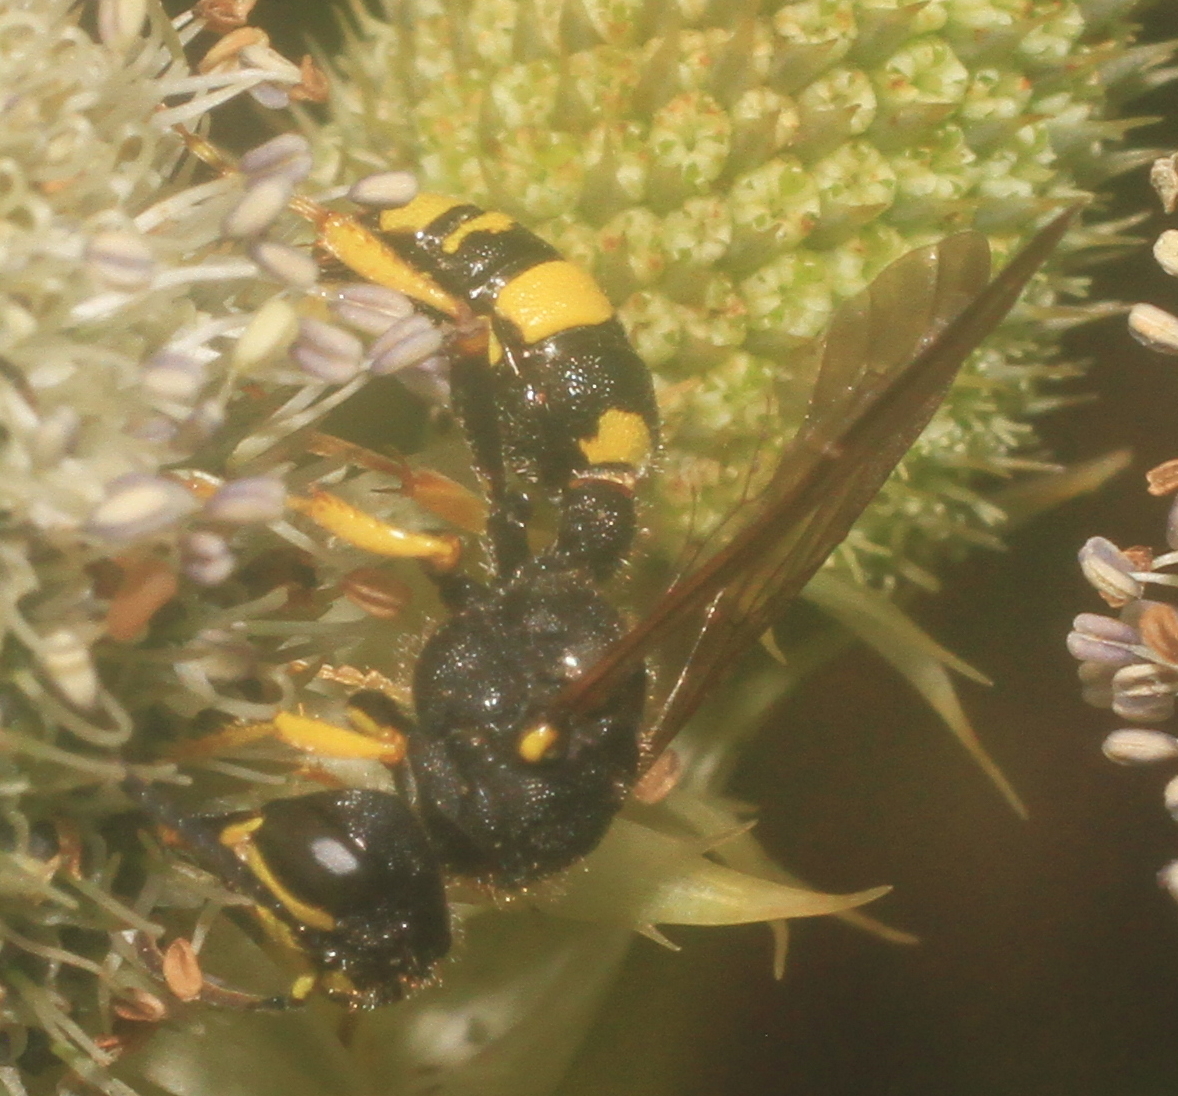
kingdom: Animalia
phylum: Arthropoda
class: Insecta
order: Hymenoptera
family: Crabronidae
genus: Cerceris
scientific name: Cerceris rybyensis
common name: Ornate tailed digger wasp
